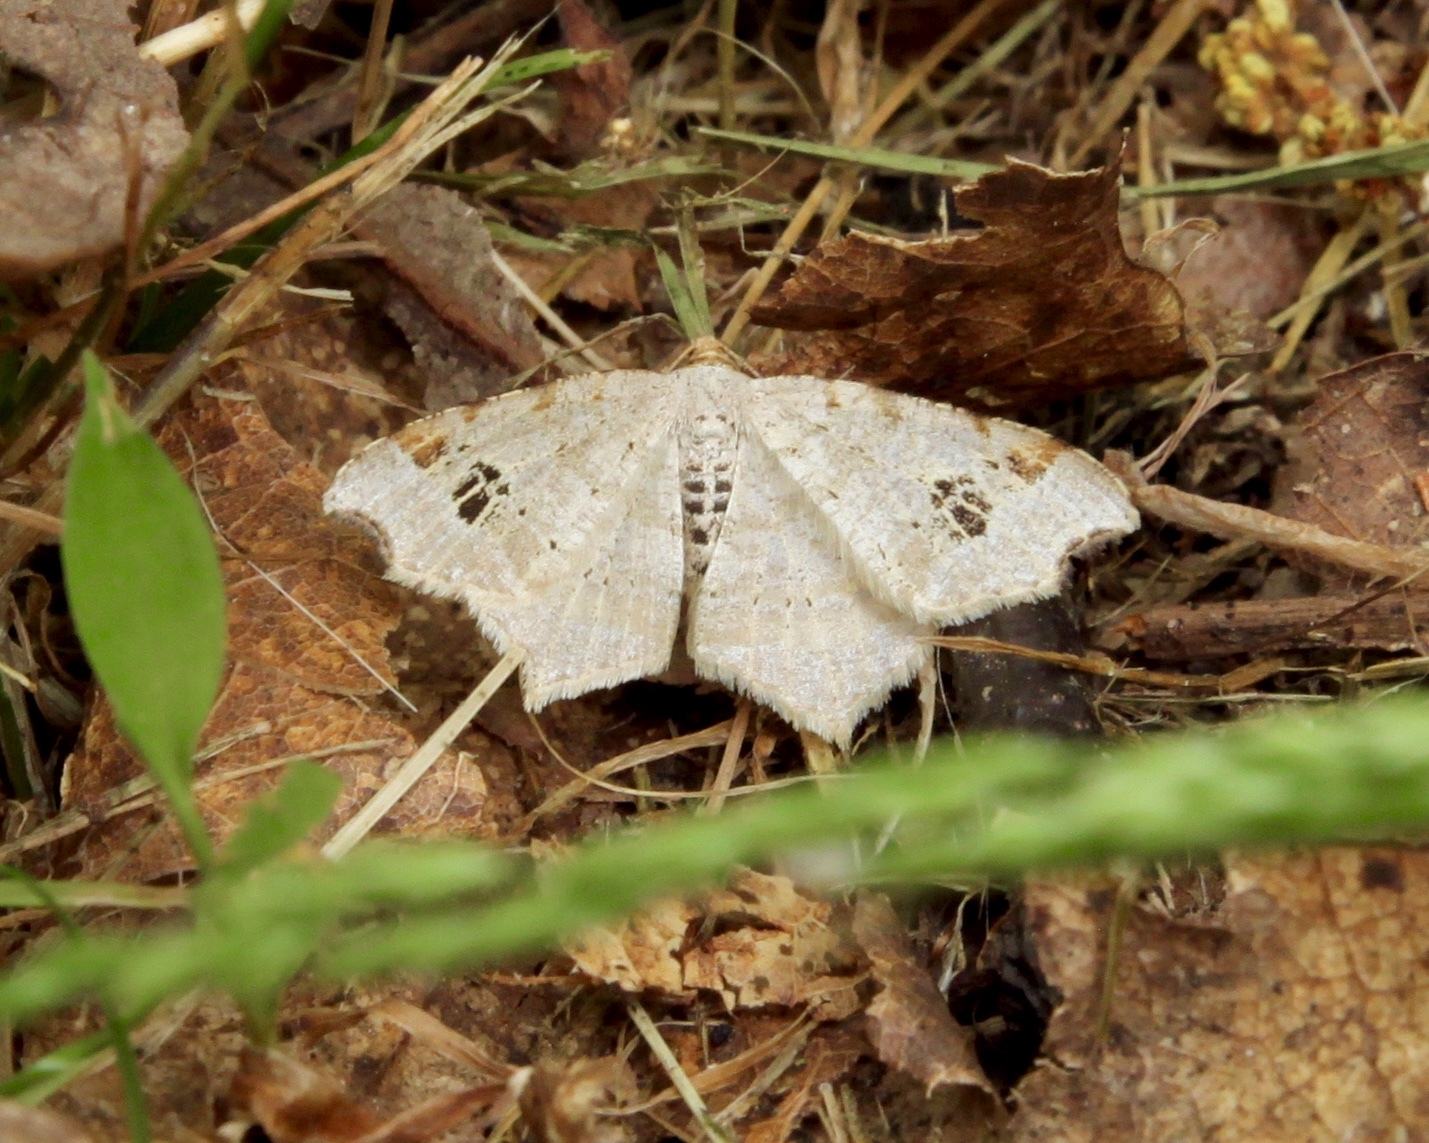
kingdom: Animalia
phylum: Arthropoda
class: Insecta
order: Lepidoptera
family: Geometridae
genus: Macaria
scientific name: Macaria aemulataria
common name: Common angle
